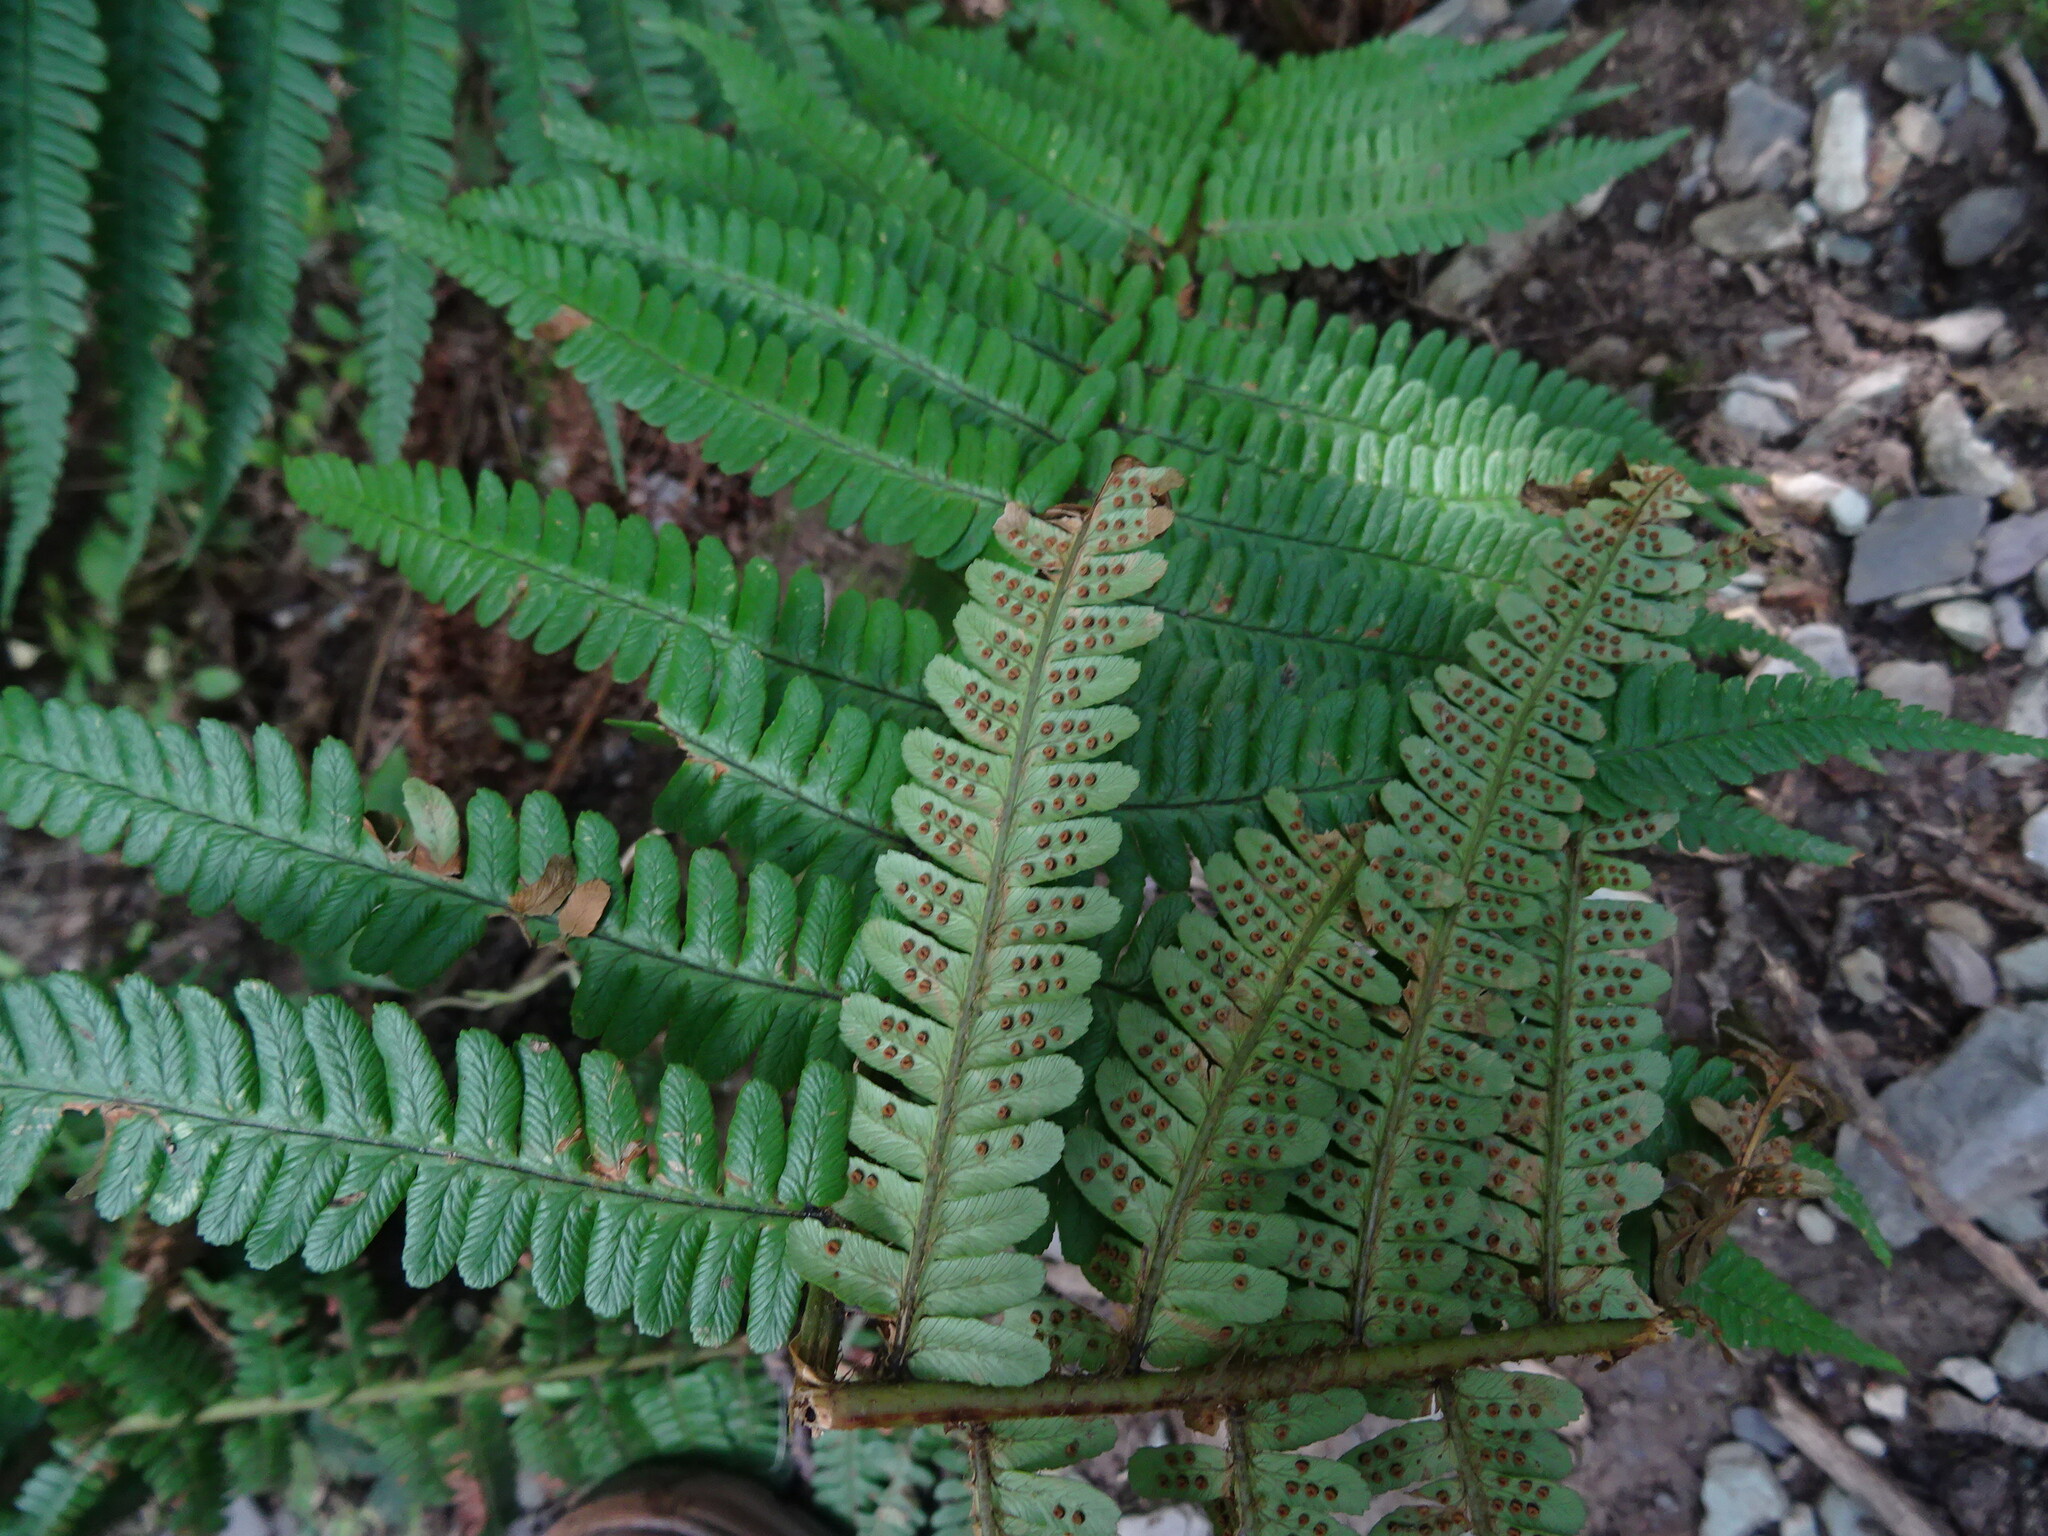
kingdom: Plantae
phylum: Tracheophyta
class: Polypodiopsida
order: Polypodiales
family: Dryopteridaceae
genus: Dryopteris
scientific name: Dryopteris affinis
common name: Scaly male fern
